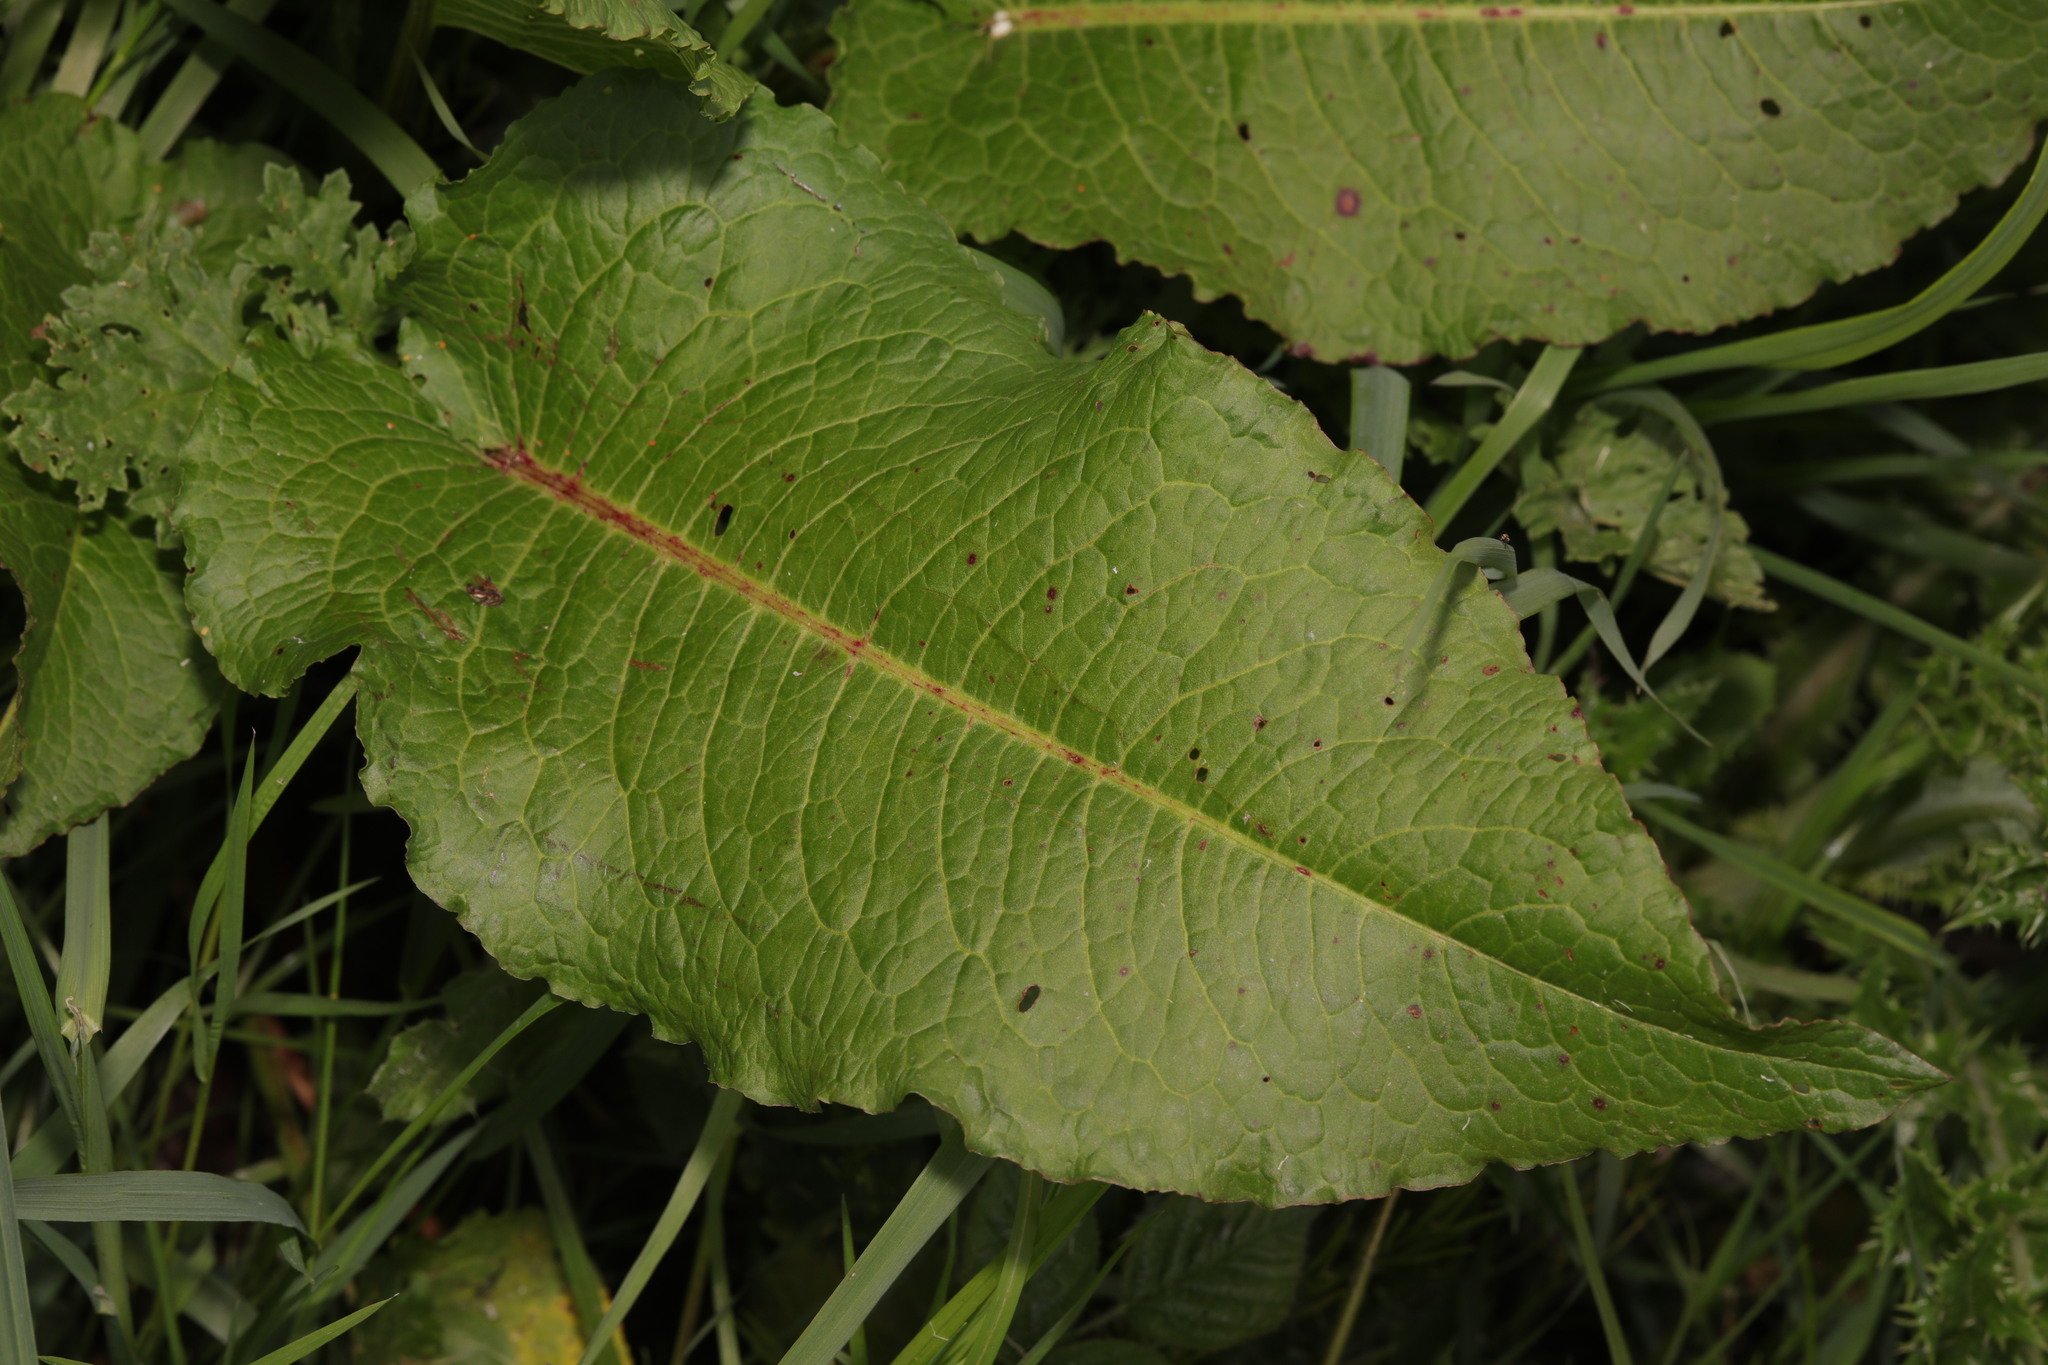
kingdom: Plantae
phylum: Tracheophyta
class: Magnoliopsida
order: Caryophyllales
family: Polygonaceae
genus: Rumex
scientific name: Rumex obtusifolius
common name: Bitter dock
